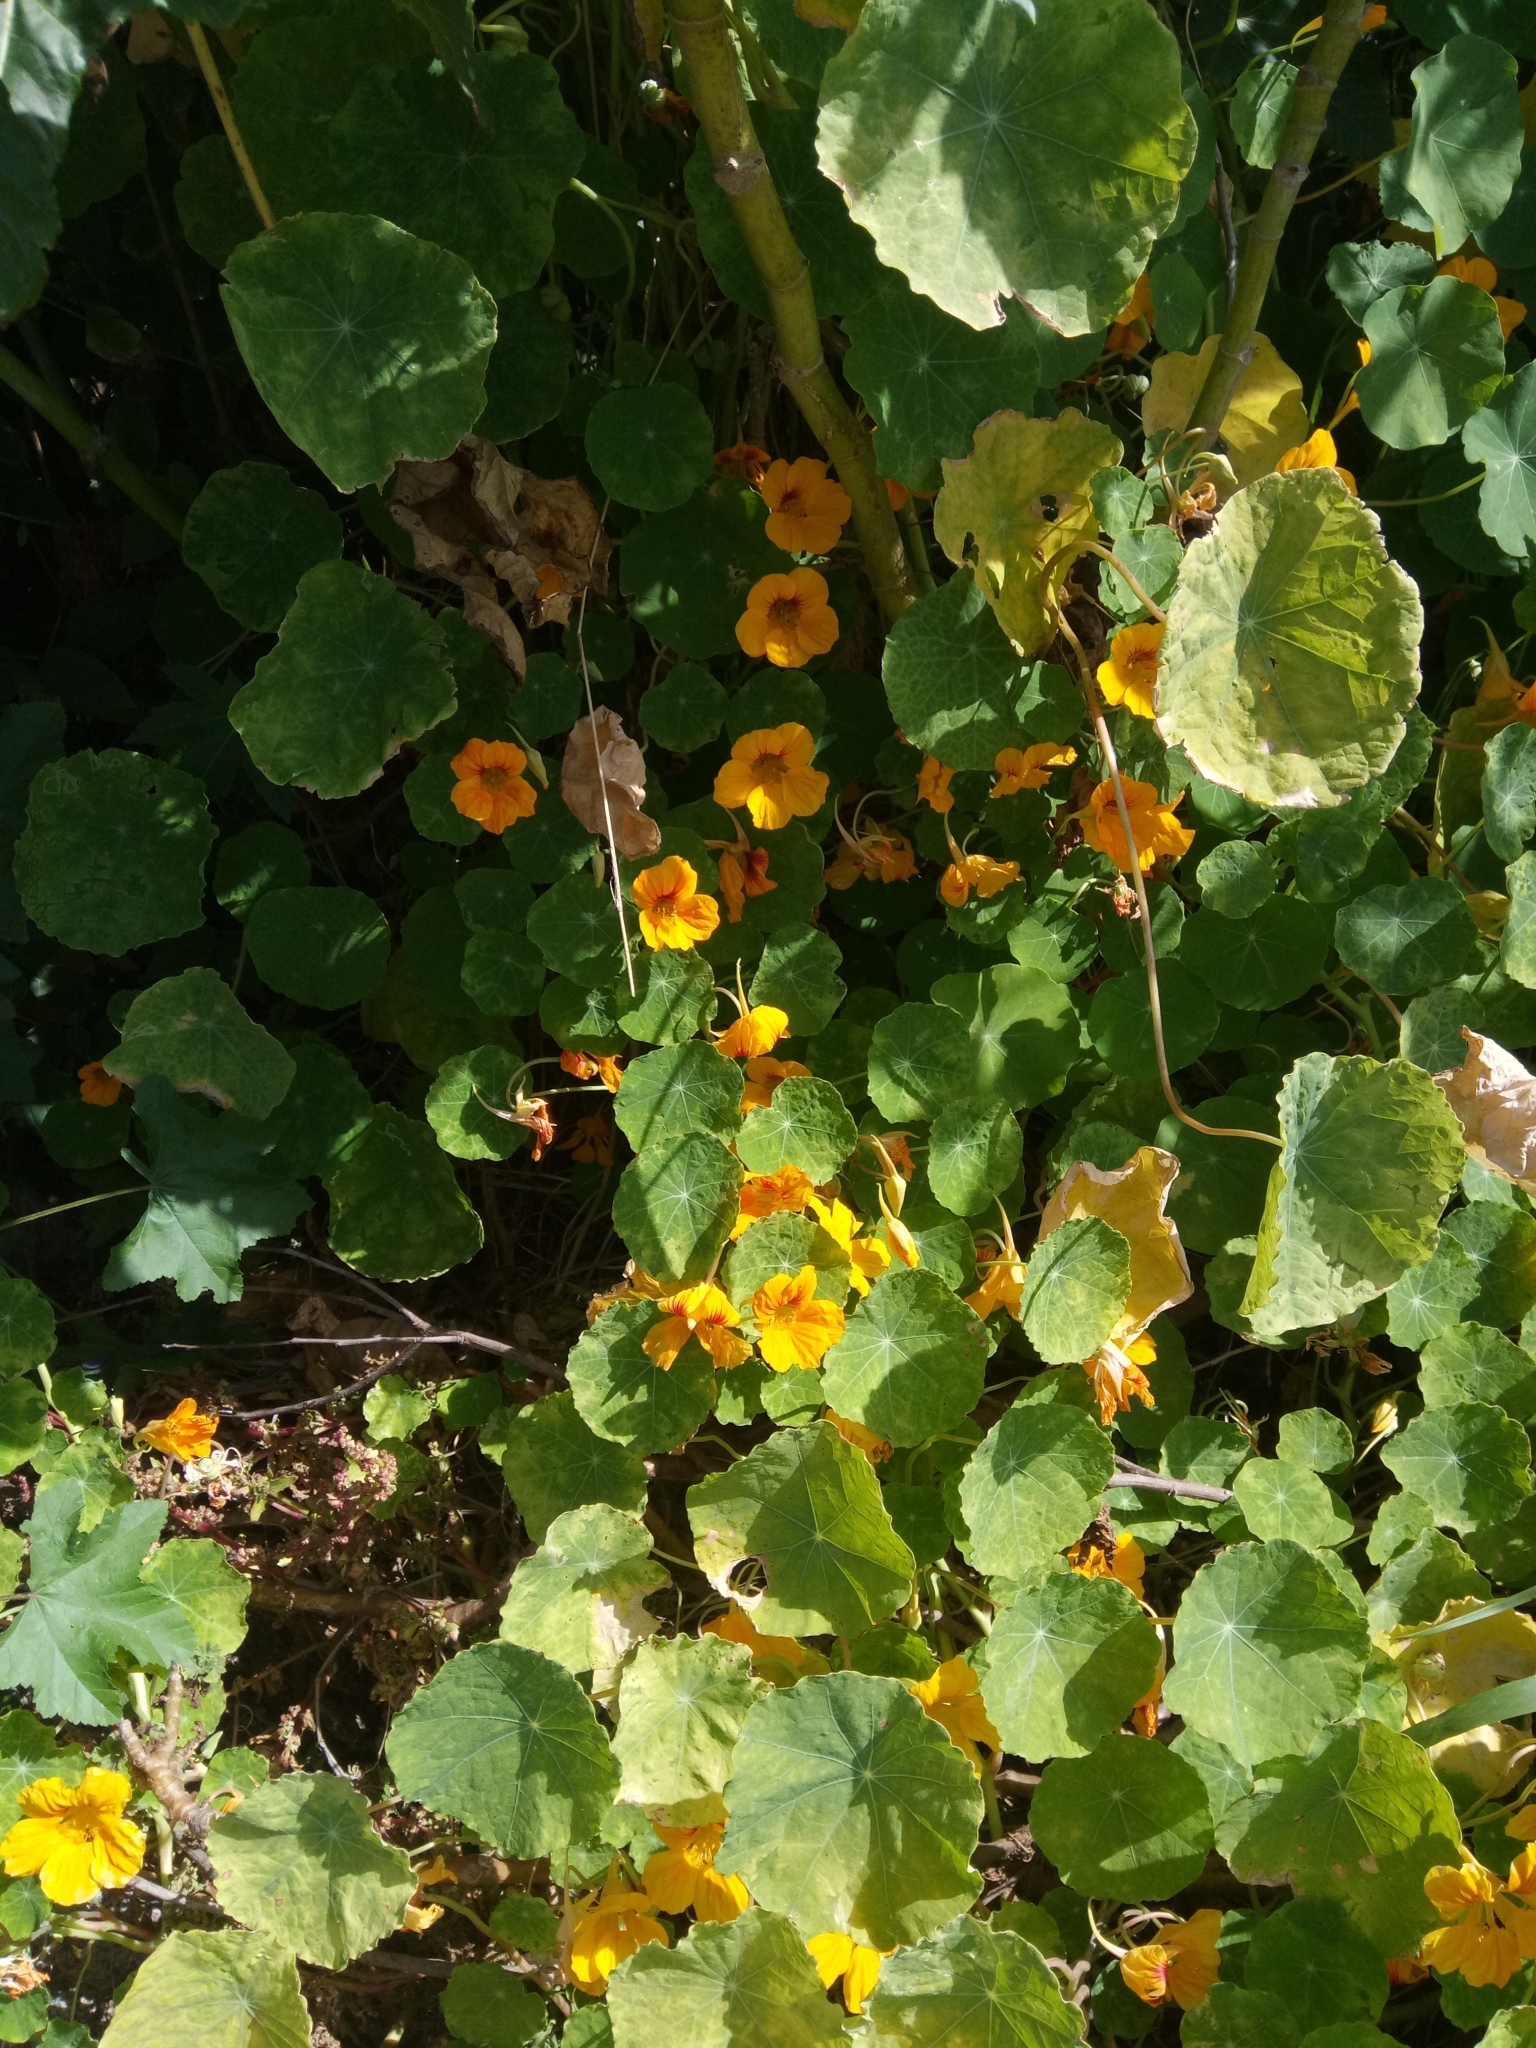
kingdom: Plantae
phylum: Tracheophyta
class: Magnoliopsida
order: Brassicales
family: Tropaeolaceae
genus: Tropaeolum
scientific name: Tropaeolum majus
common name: Nasturtium
